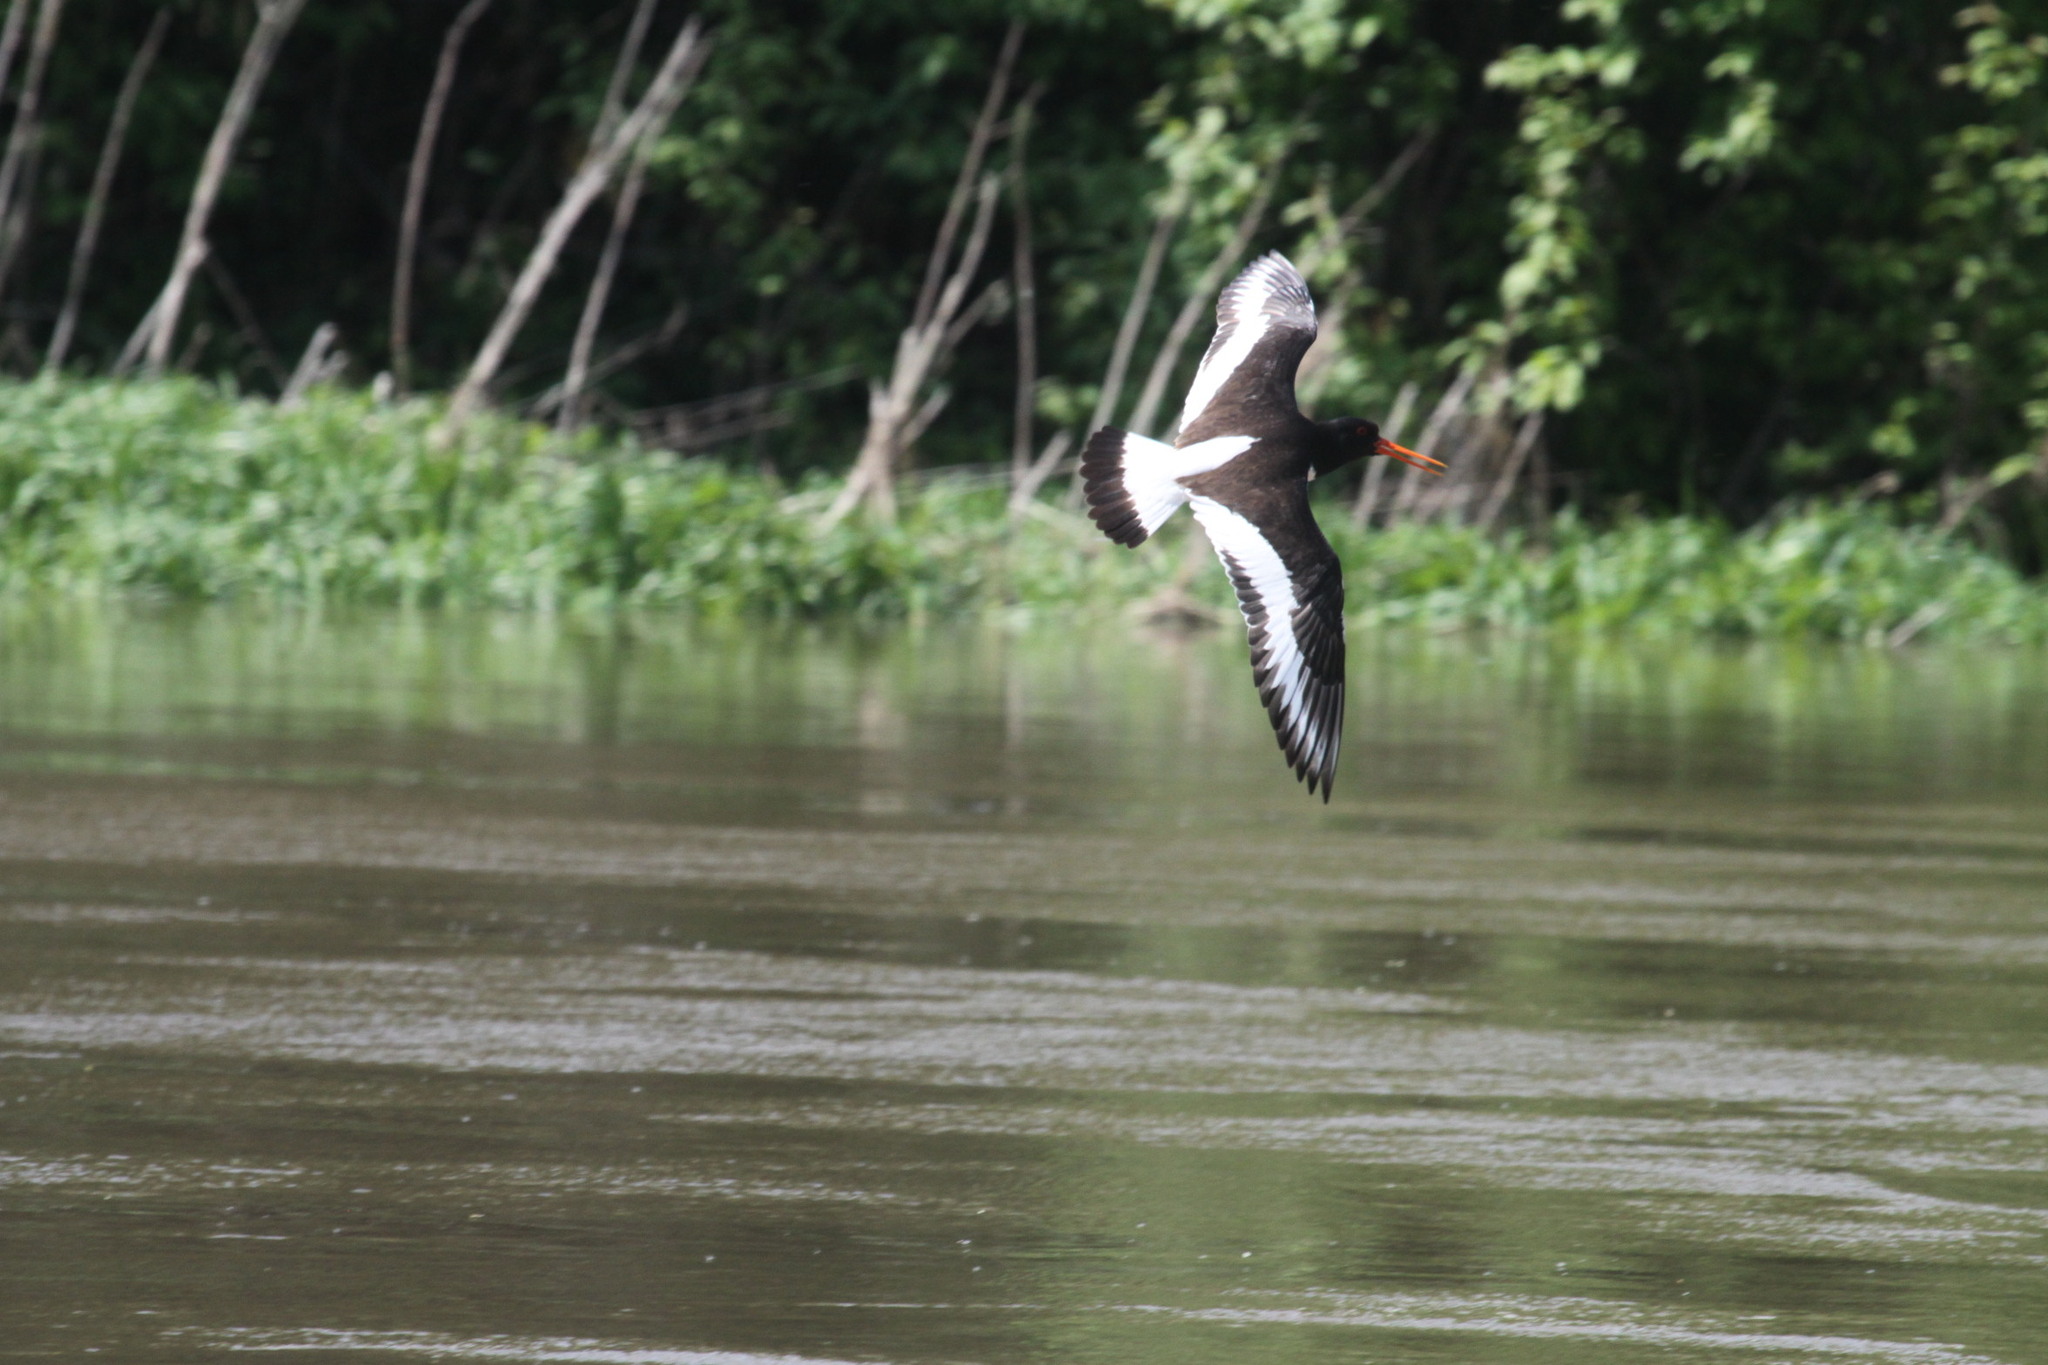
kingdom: Animalia
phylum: Chordata
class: Aves
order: Charadriiformes
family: Haematopodidae
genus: Haematopus
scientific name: Haematopus ostralegus
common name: Eurasian oystercatcher
